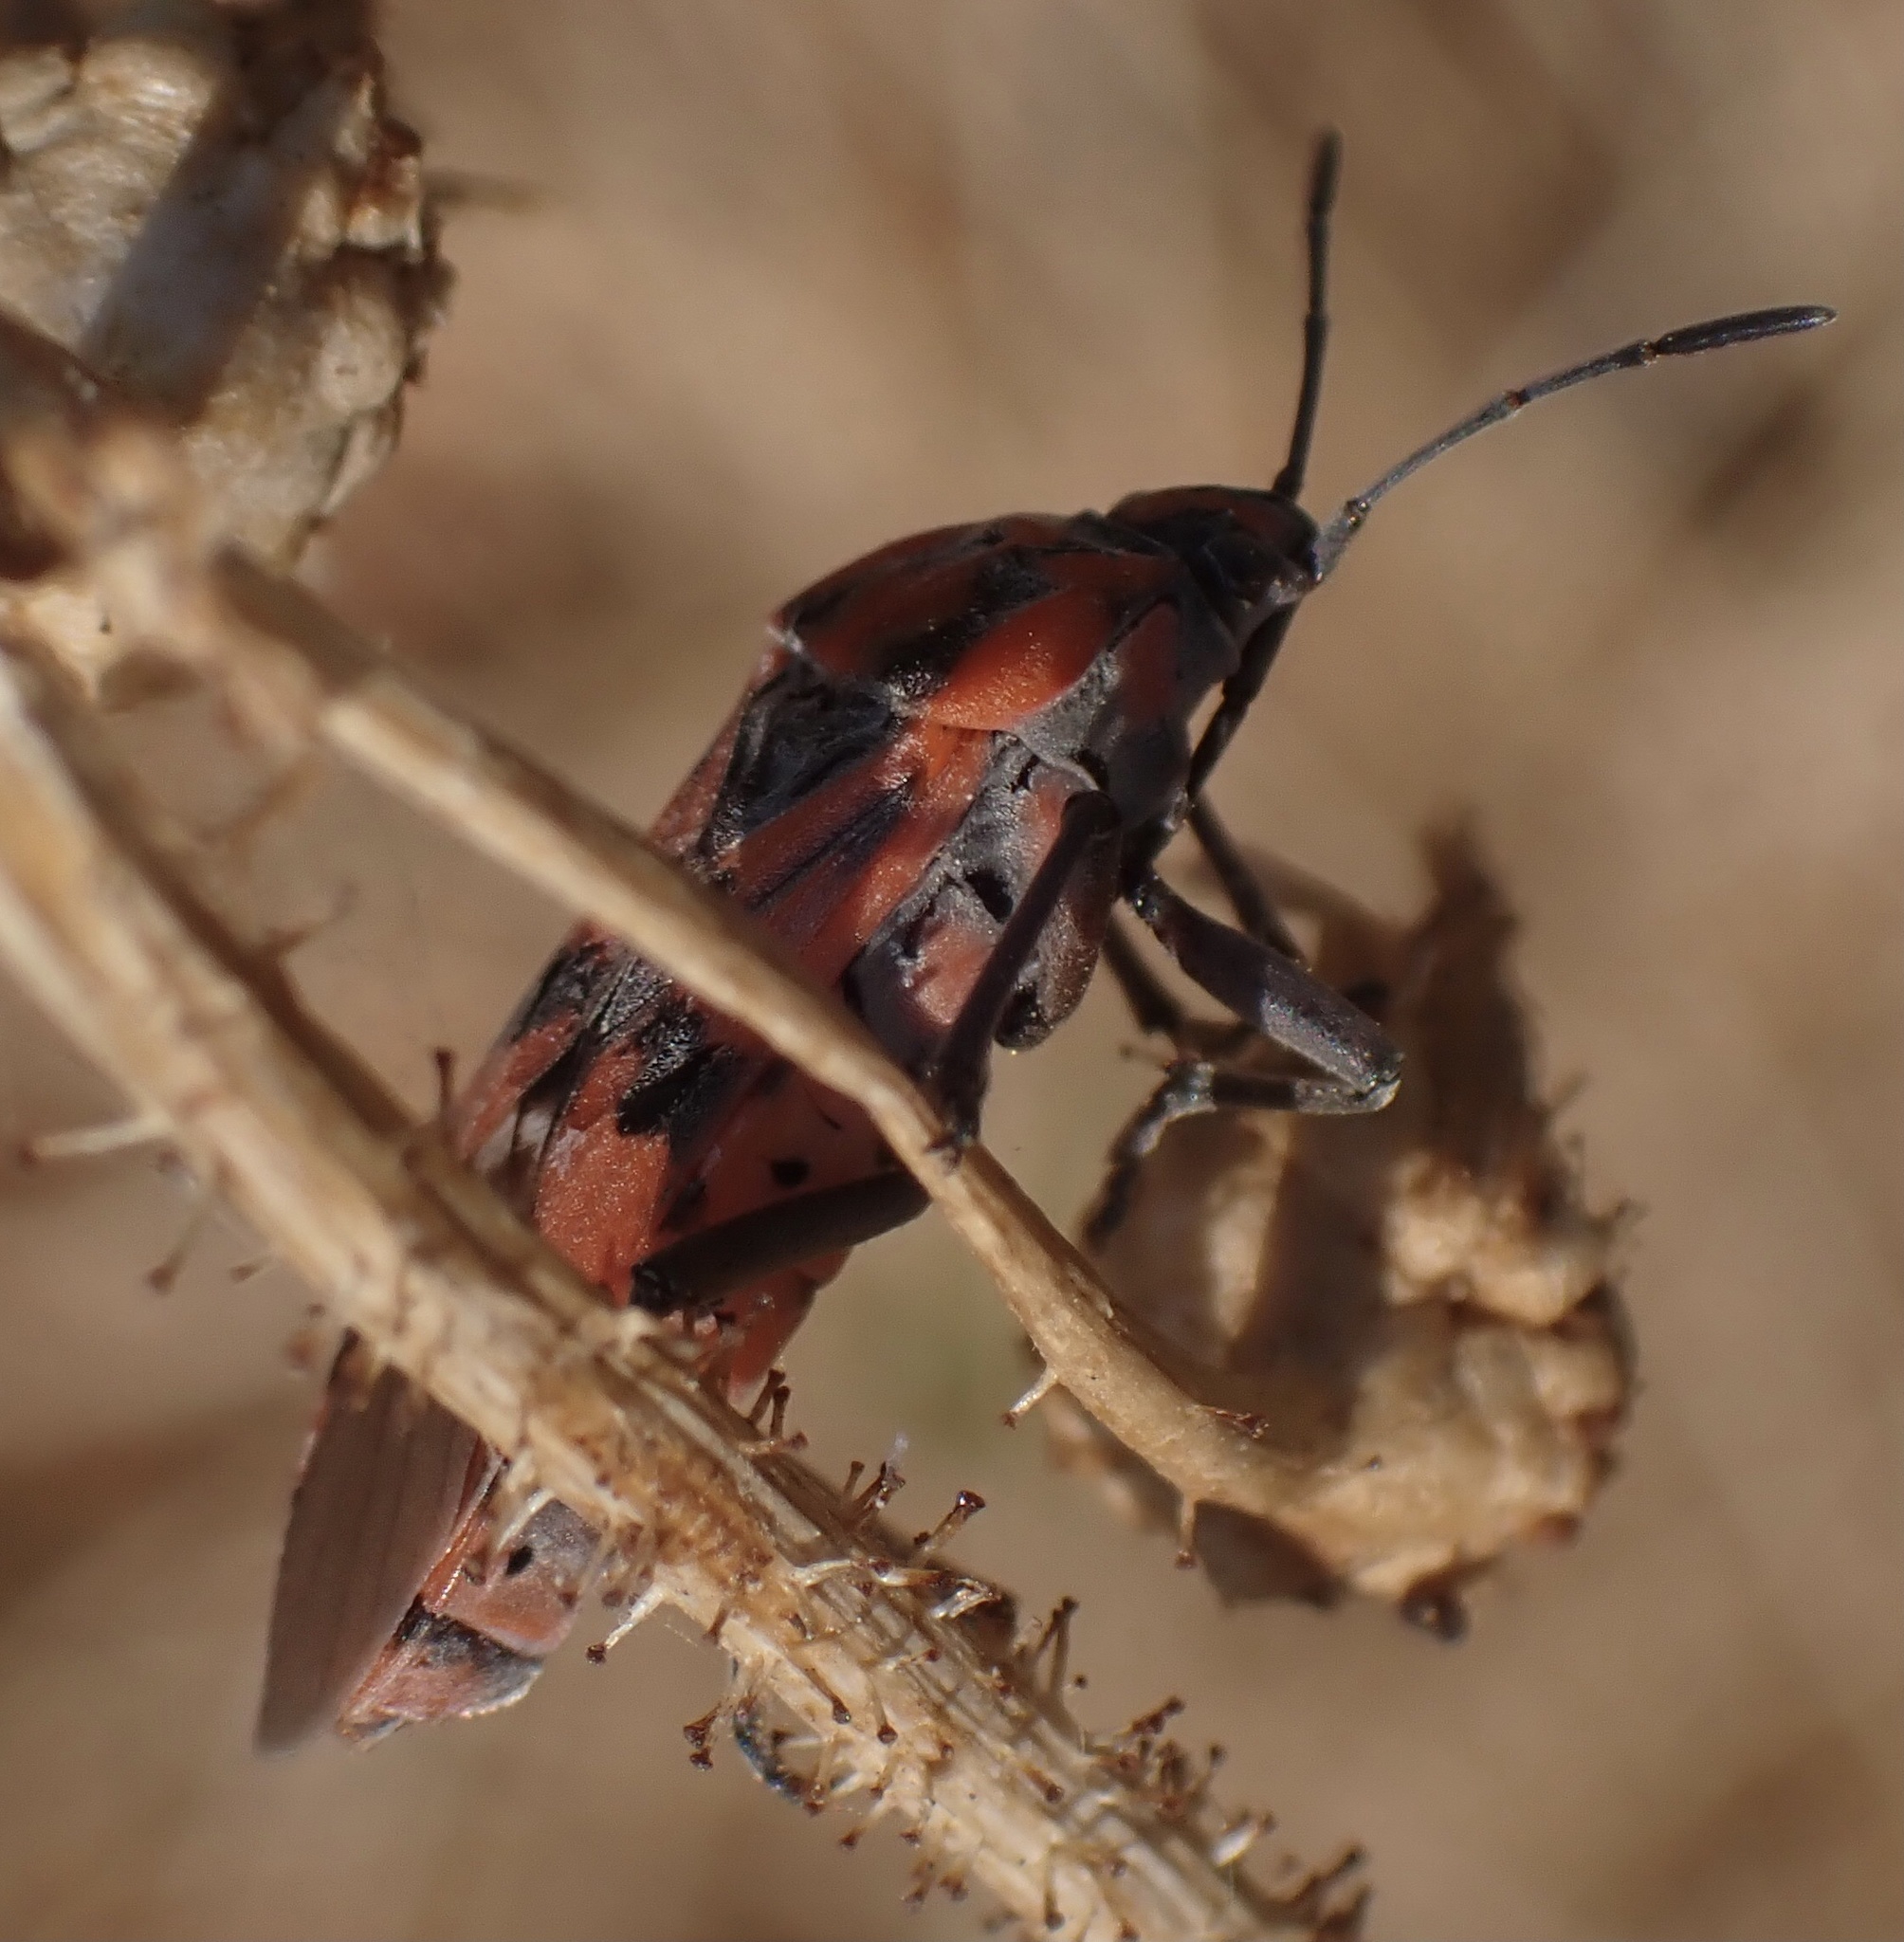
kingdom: Animalia
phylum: Arthropoda
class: Insecta
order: Hemiptera
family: Lygaeidae
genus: Spilostethus
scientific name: Spilostethus pandurus
